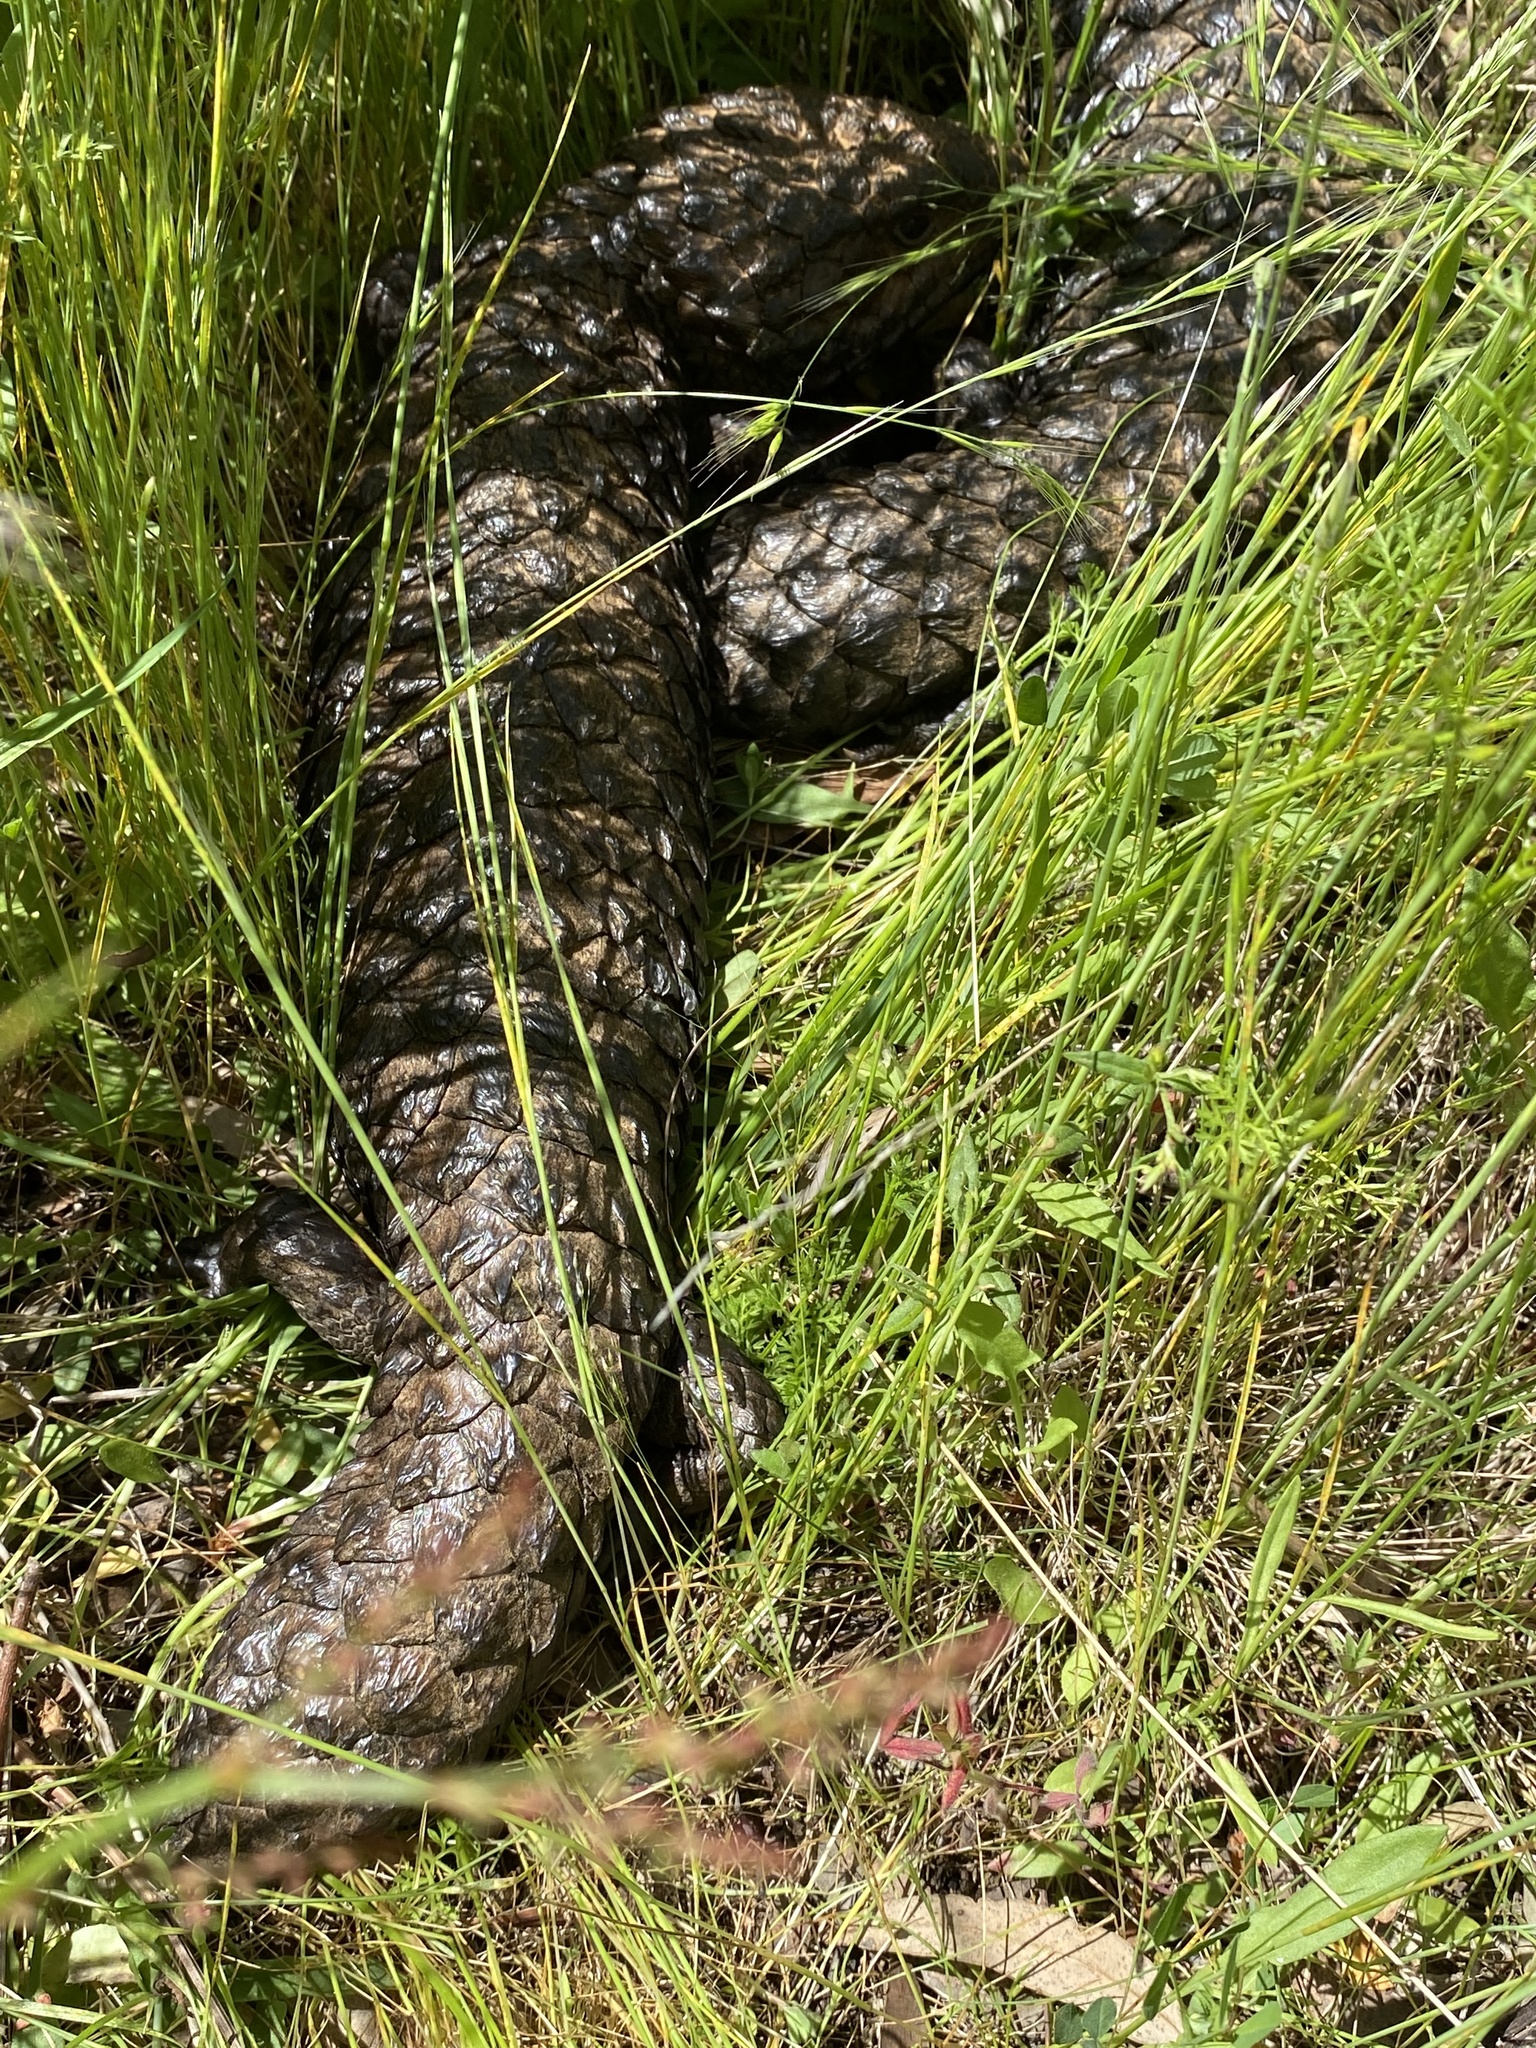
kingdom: Animalia
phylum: Chordata
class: Squamata
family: Scincidae
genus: Tiliqua
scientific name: Tiliqua rugosa
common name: Pinecone lizard
